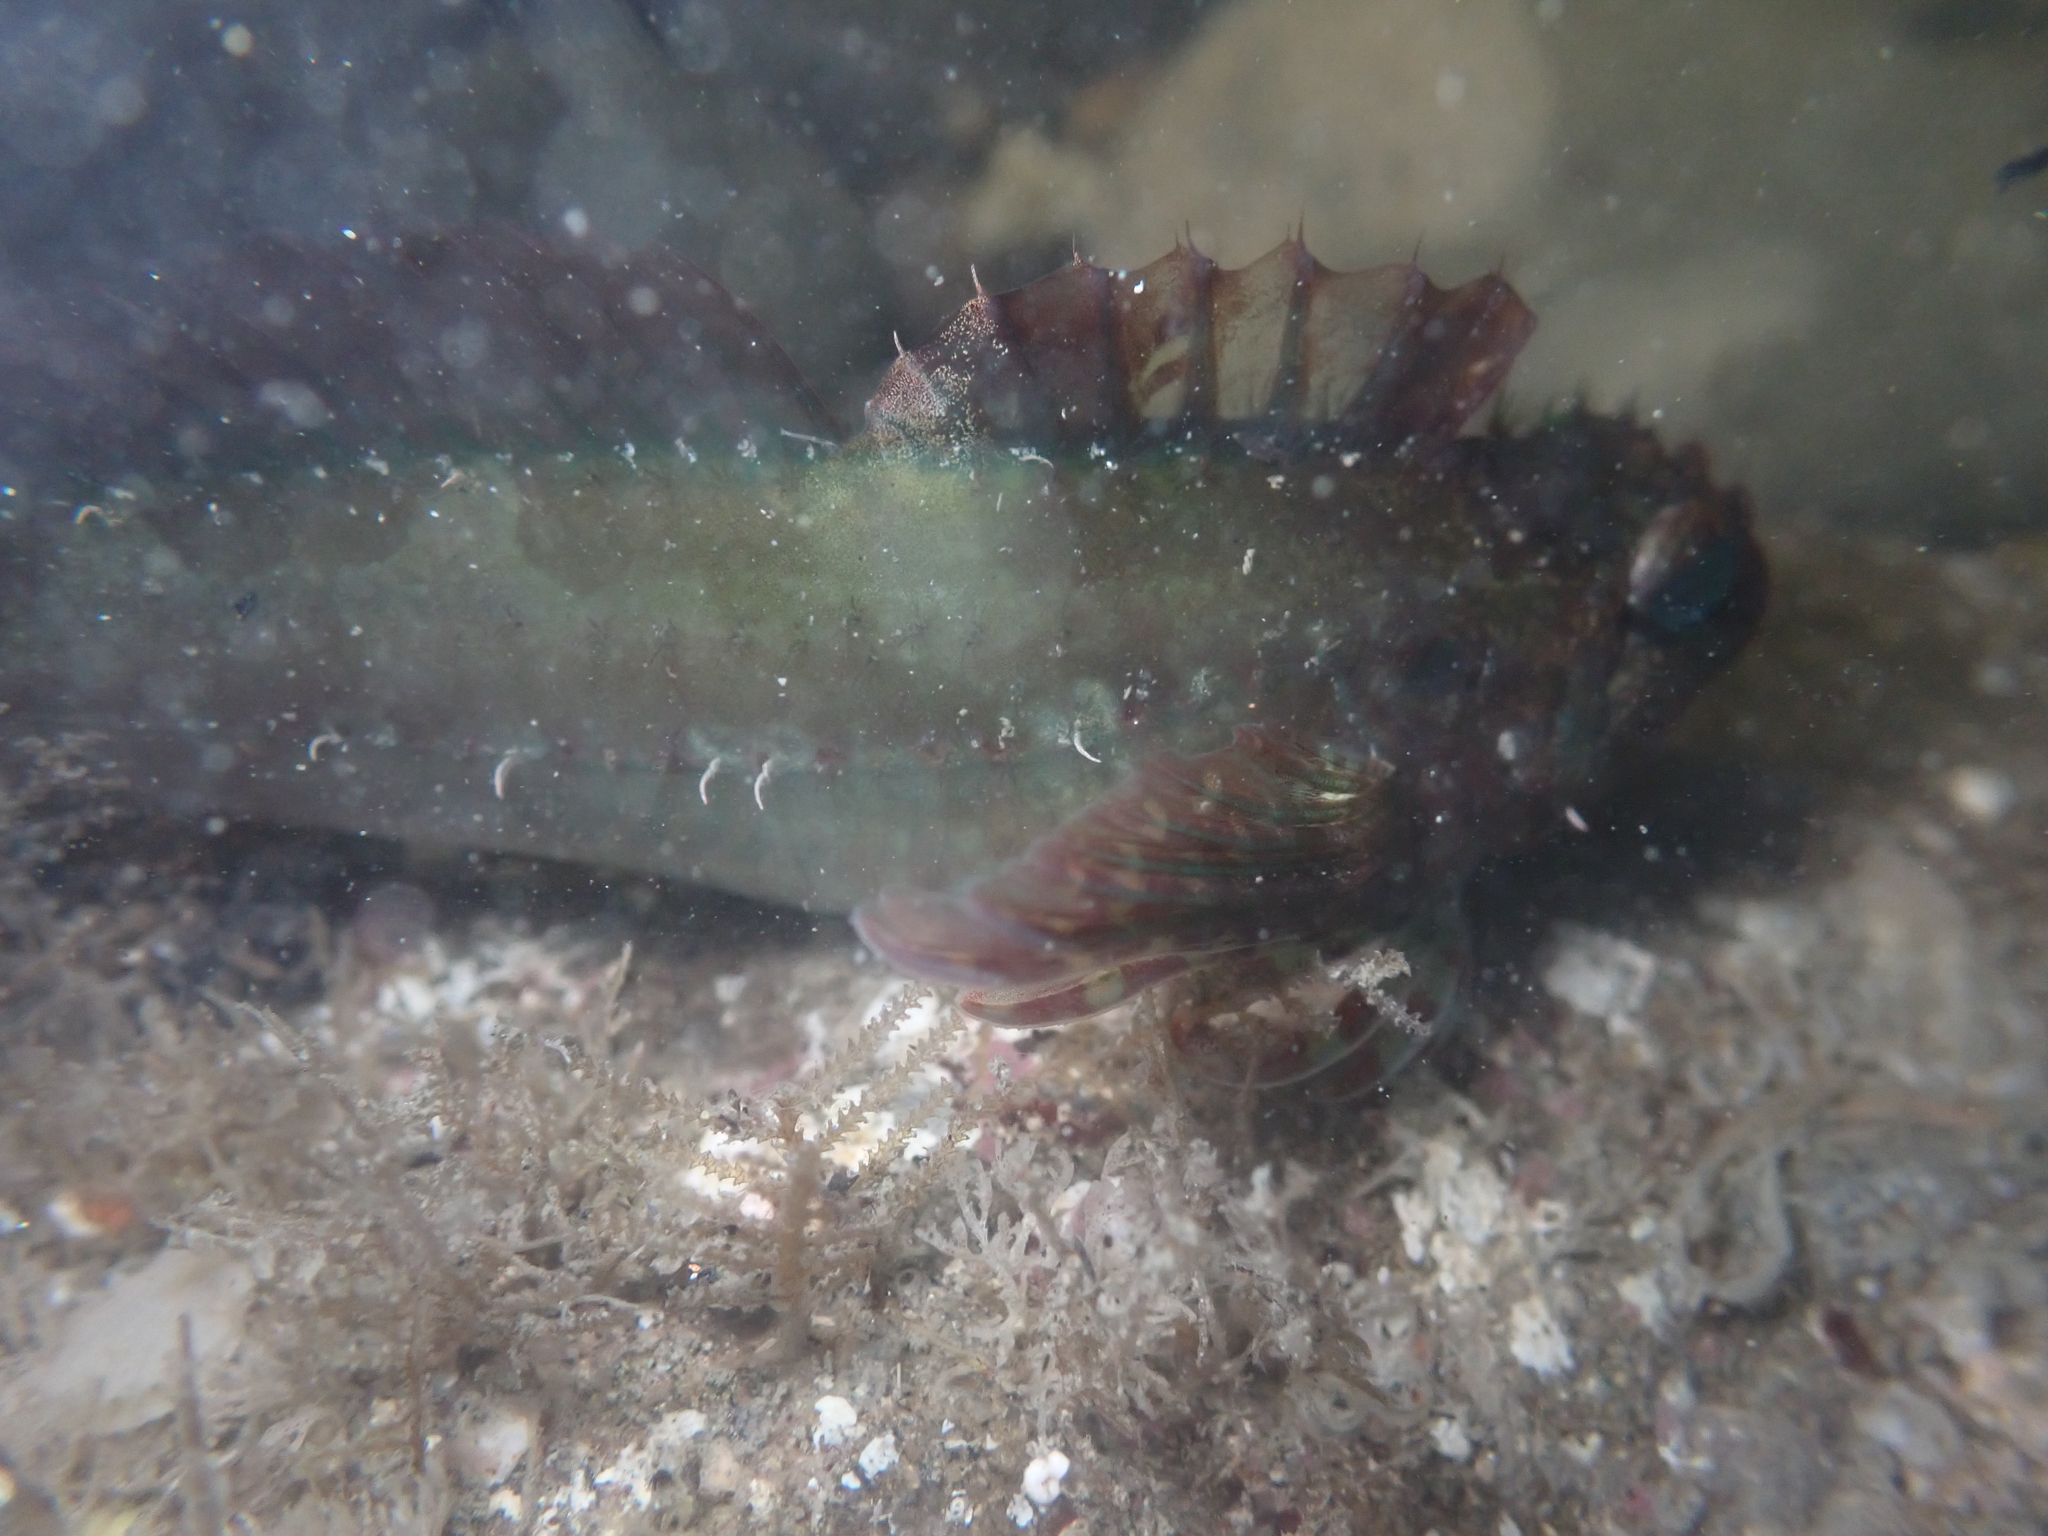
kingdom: Animalia
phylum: Chordata
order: Scorpaeniformes
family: Cottidae
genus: Oligocottus
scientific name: Oligocottus snyderi
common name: Fluffy sculpin
